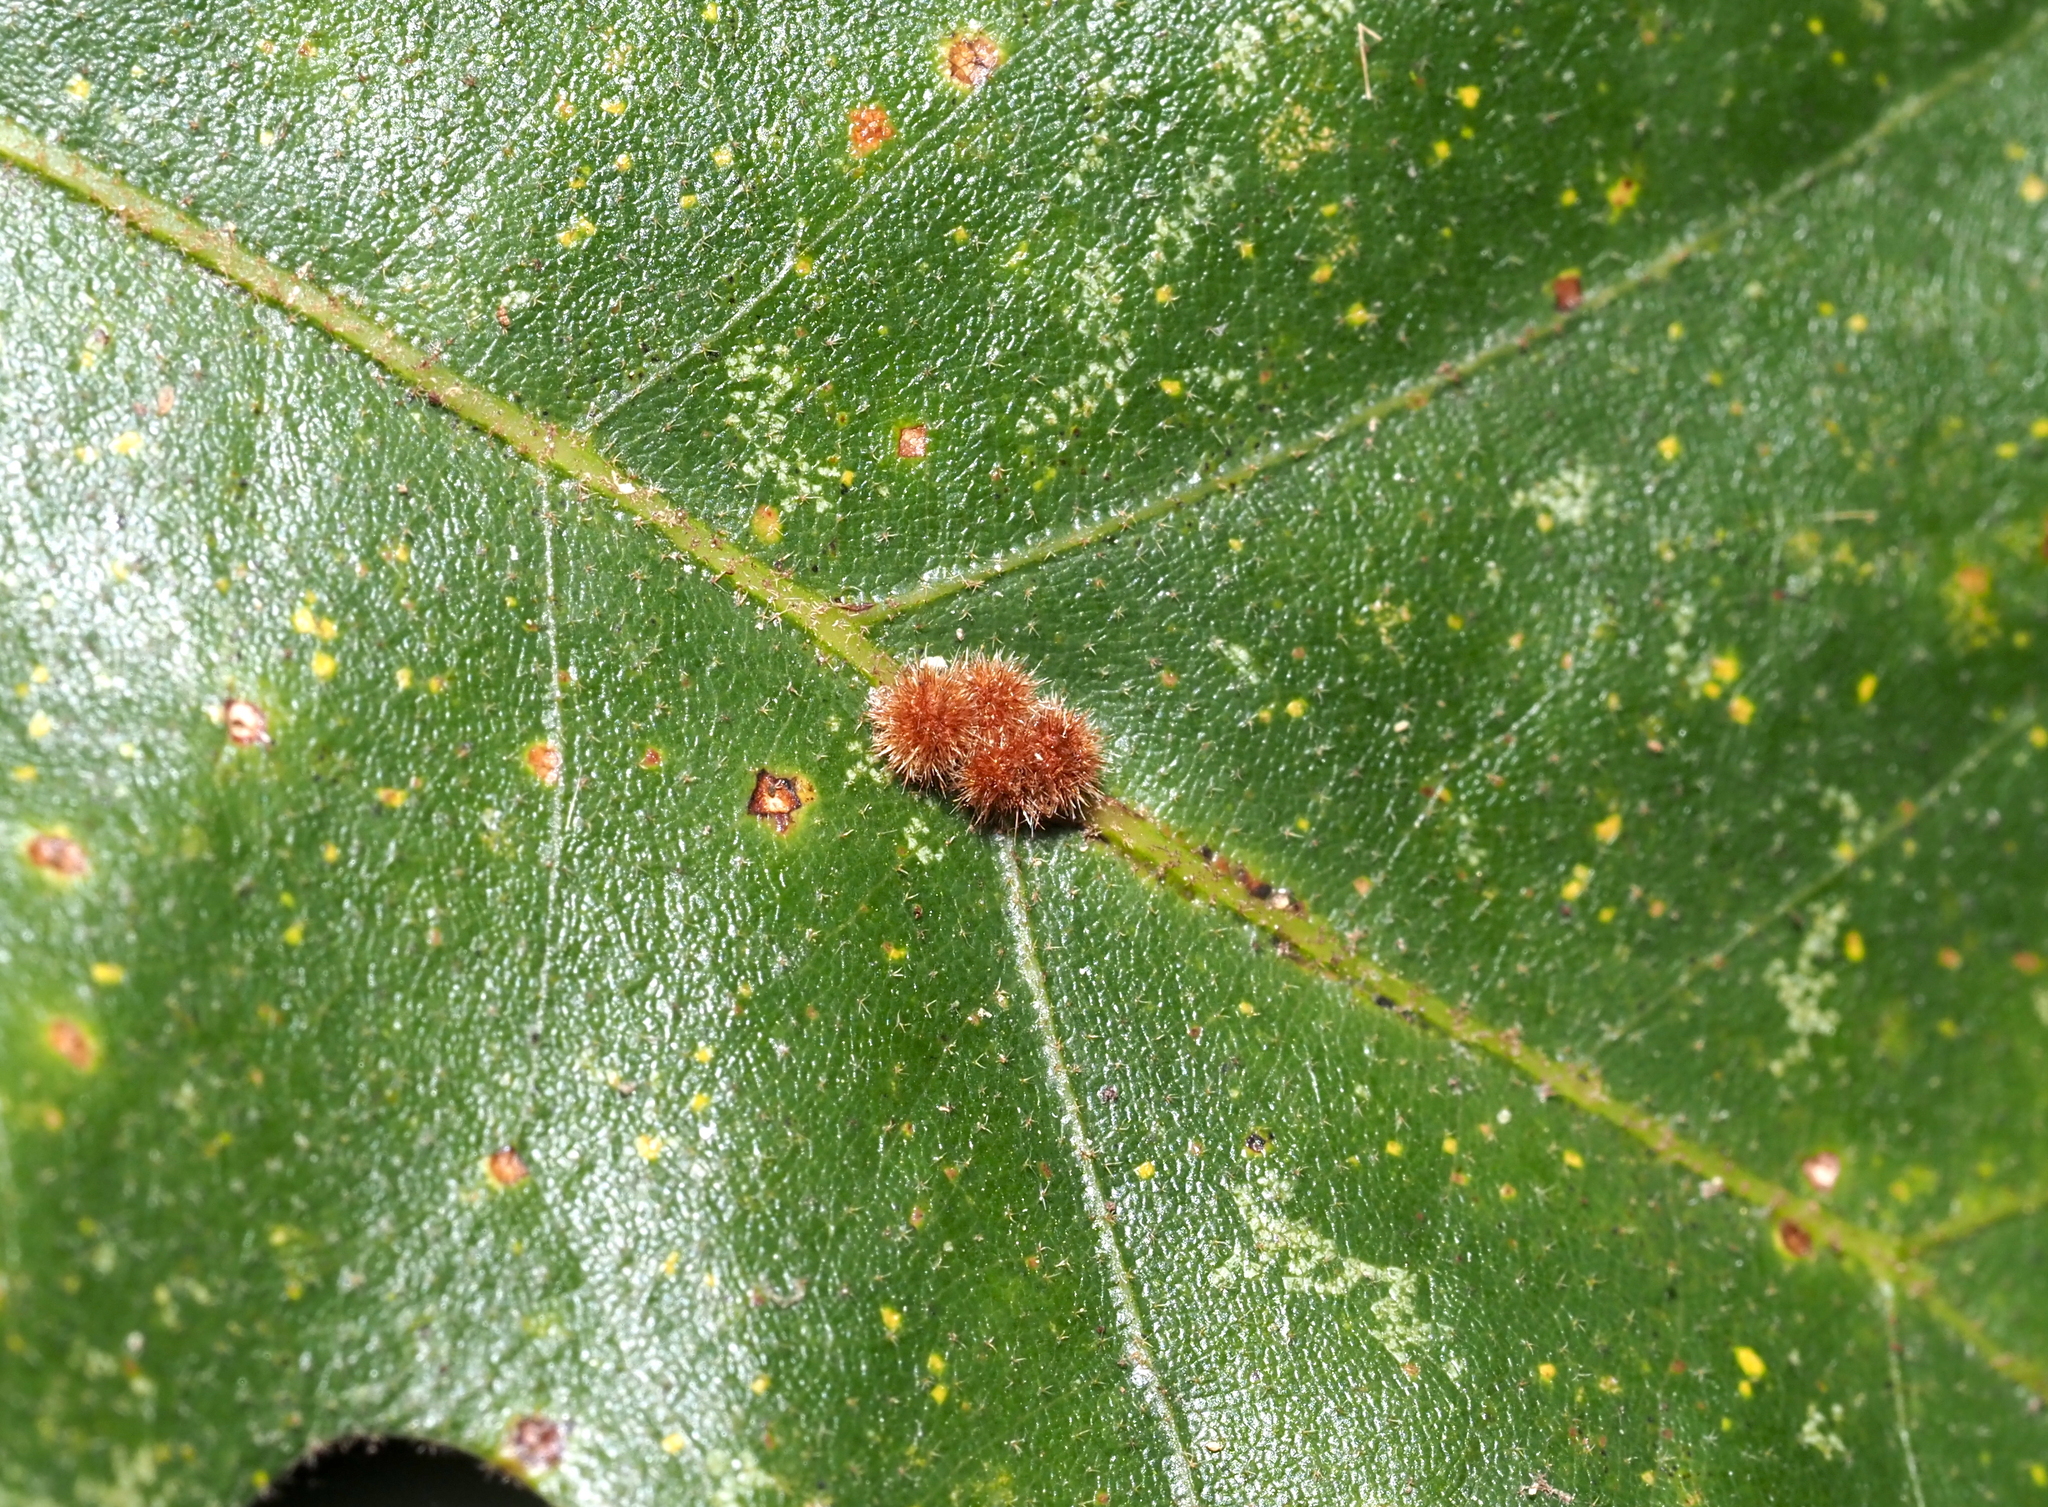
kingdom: Animalia
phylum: Arthropoda
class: Insecta
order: Hymenoptera
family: Cynipidae
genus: Biorhiza
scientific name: Biorhiza Sphaeroteras carolina
